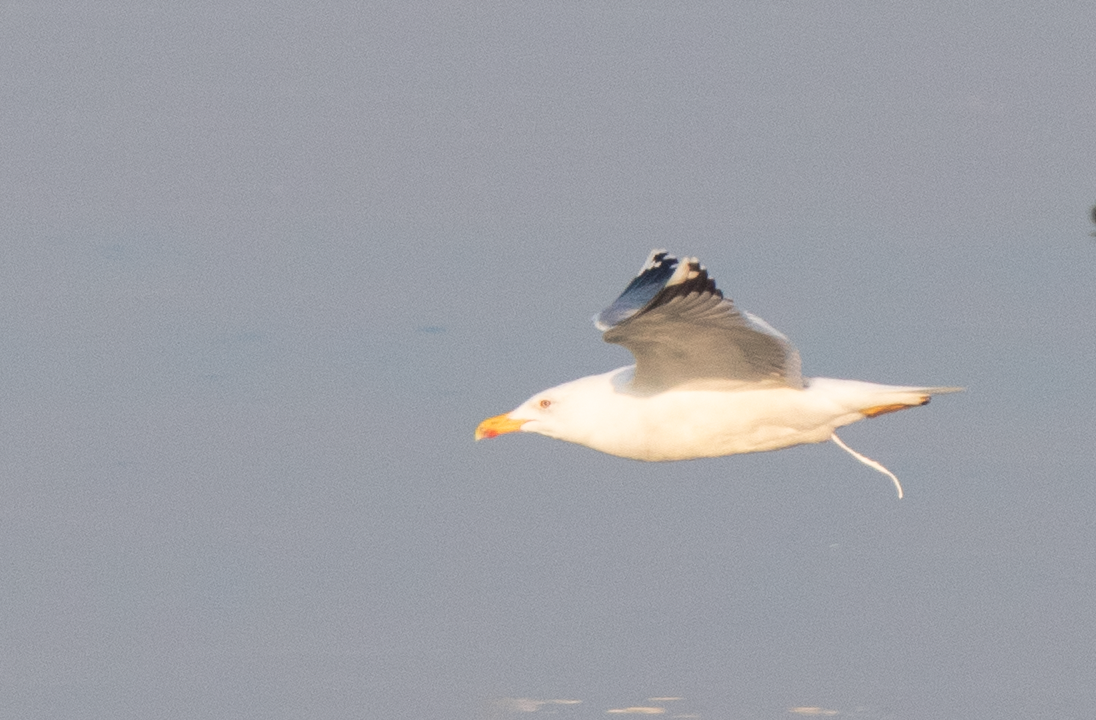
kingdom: Animalia
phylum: Chordata
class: Aves
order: Charadriiformes
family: Laridae
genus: Larus
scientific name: Larus michahellis
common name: Yellow-legged gull
